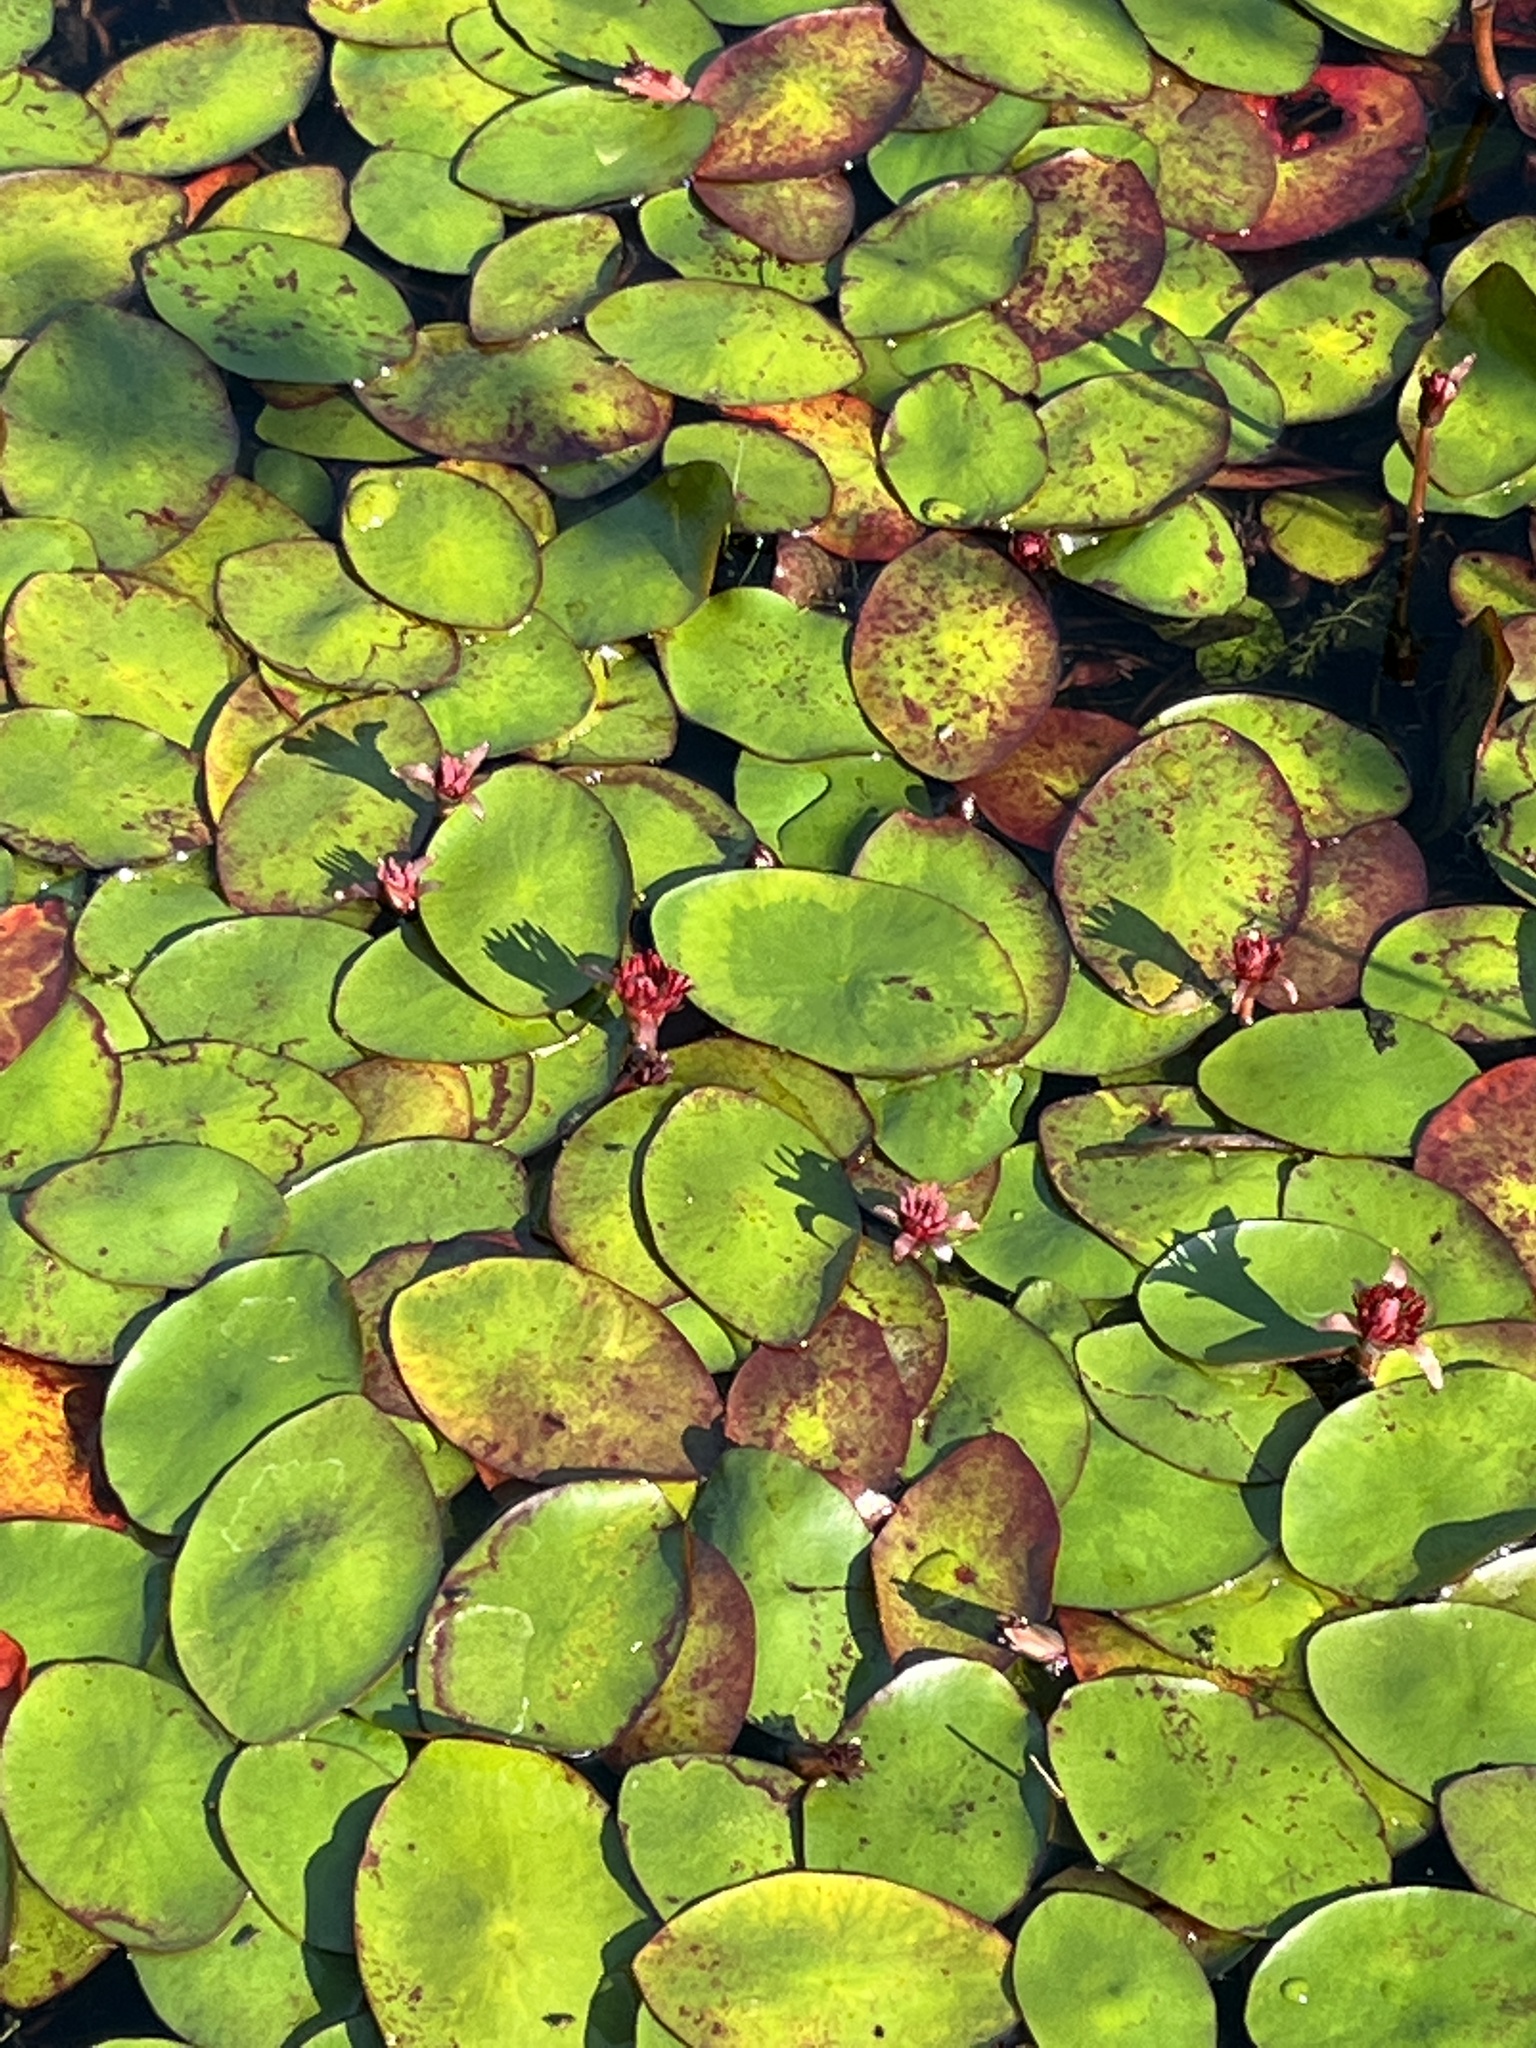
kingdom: Plantae
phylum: Tracheophyta
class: Magnoliopsida
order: Nymphaeales
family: Cabombaceae
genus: Brasenia
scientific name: Brasenia schreberi
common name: Water-shield
